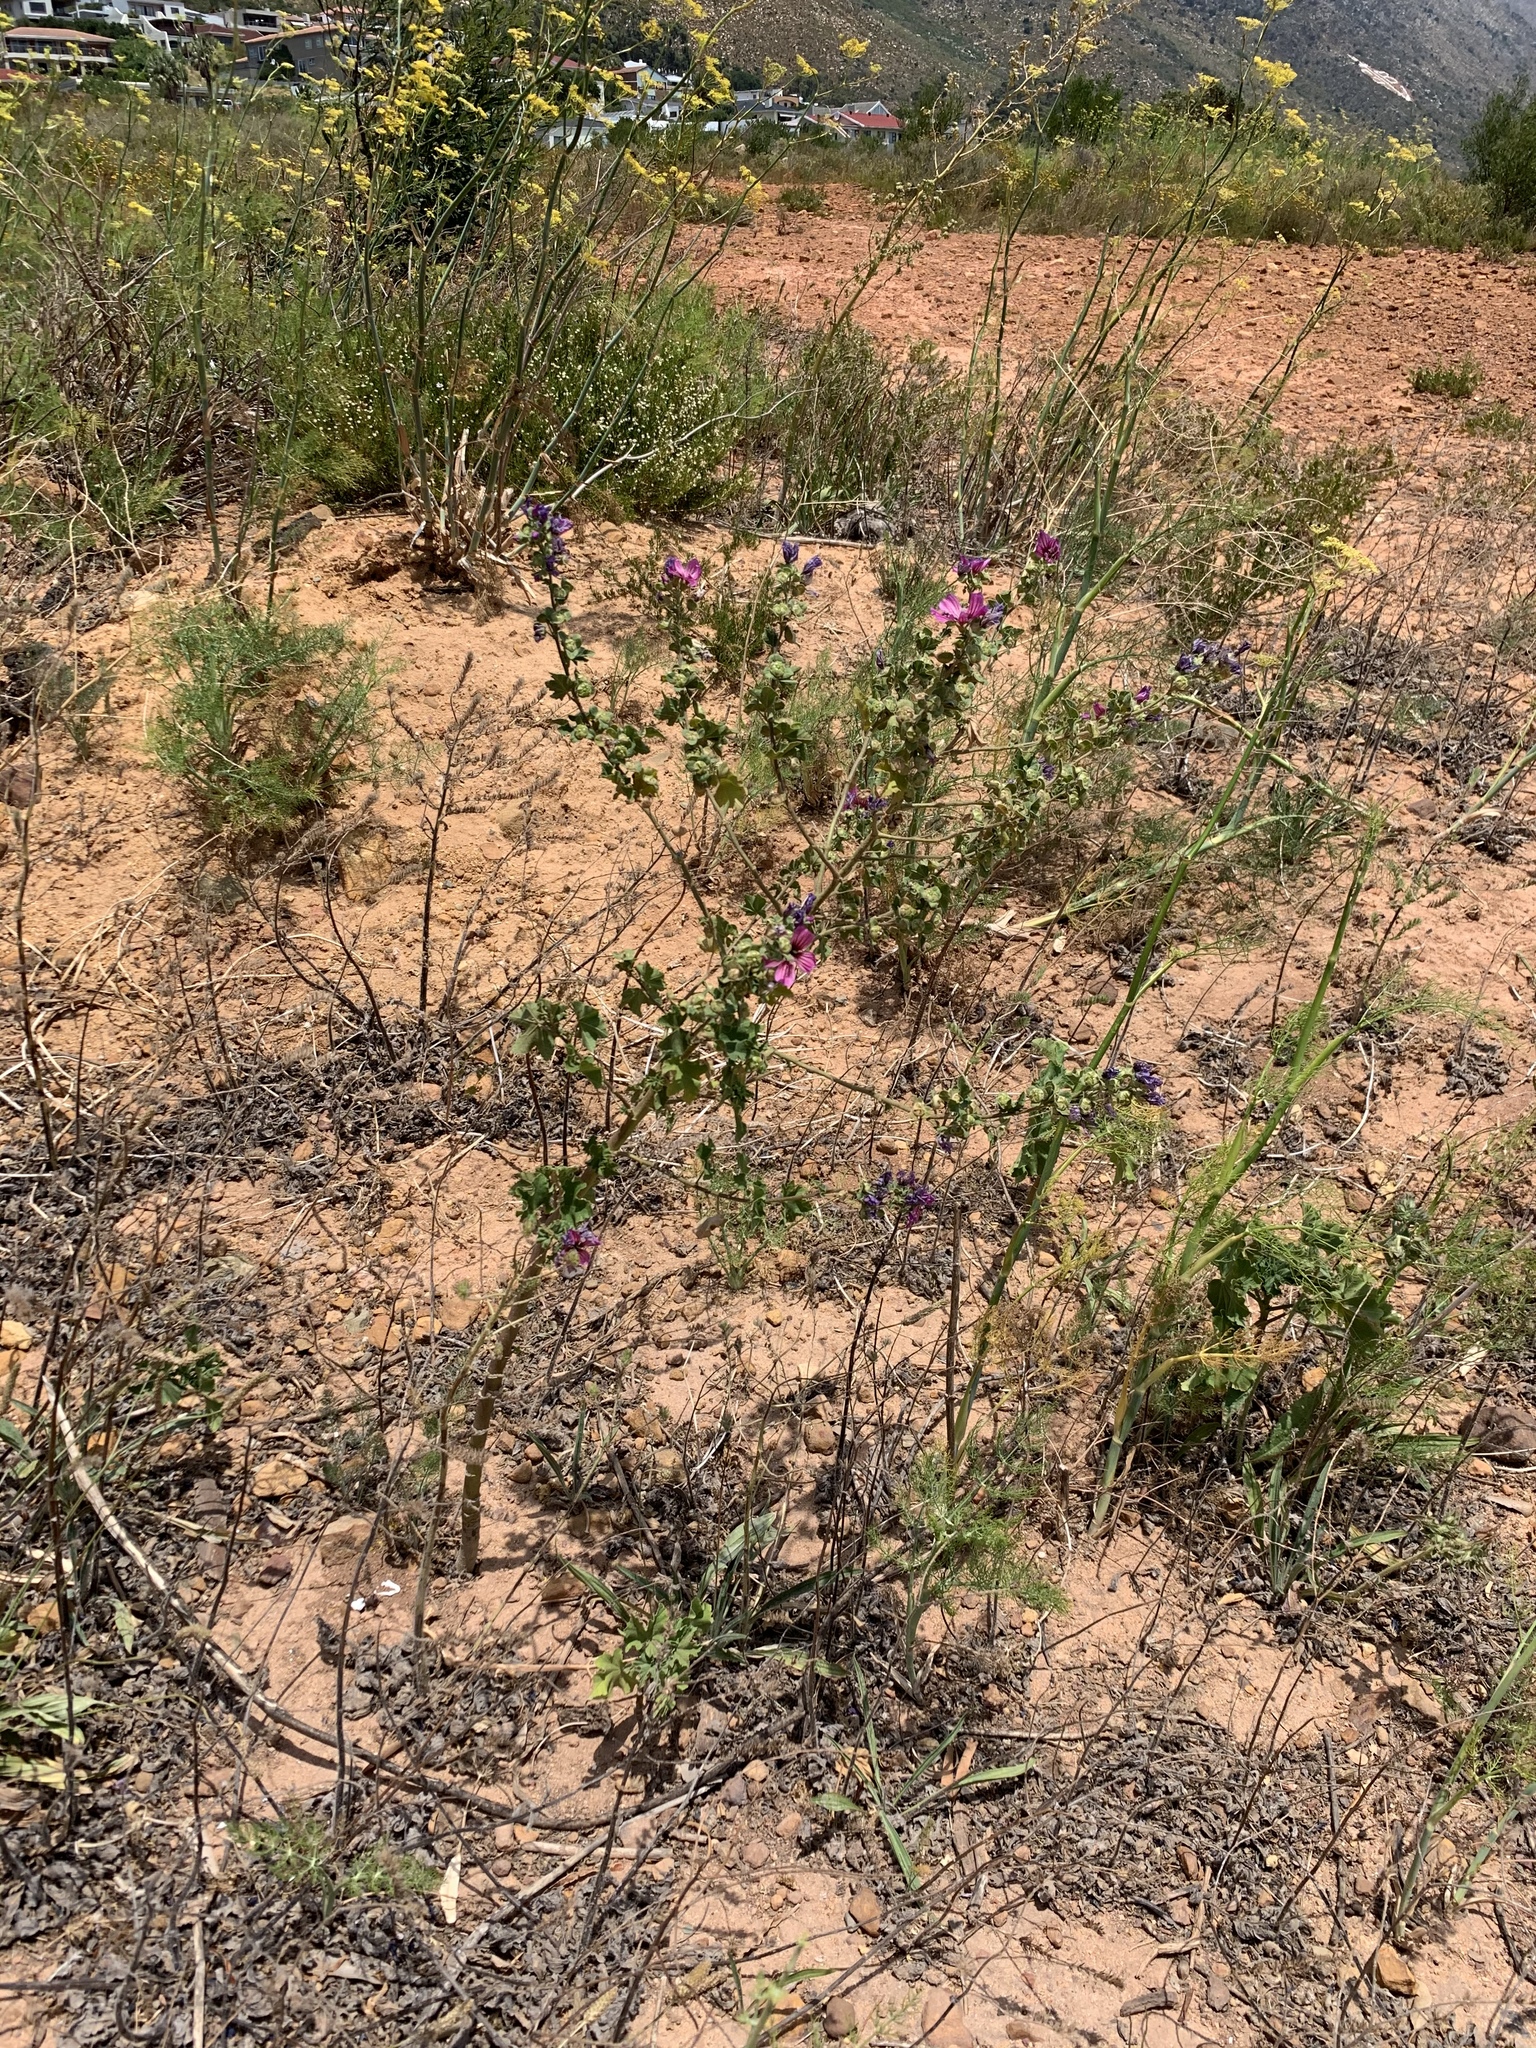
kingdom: Plantae
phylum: Tracheophyta
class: Magnoliopsida
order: Malvales
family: Malvaceae
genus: Malva
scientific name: Malva arborea
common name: Tree mallow
